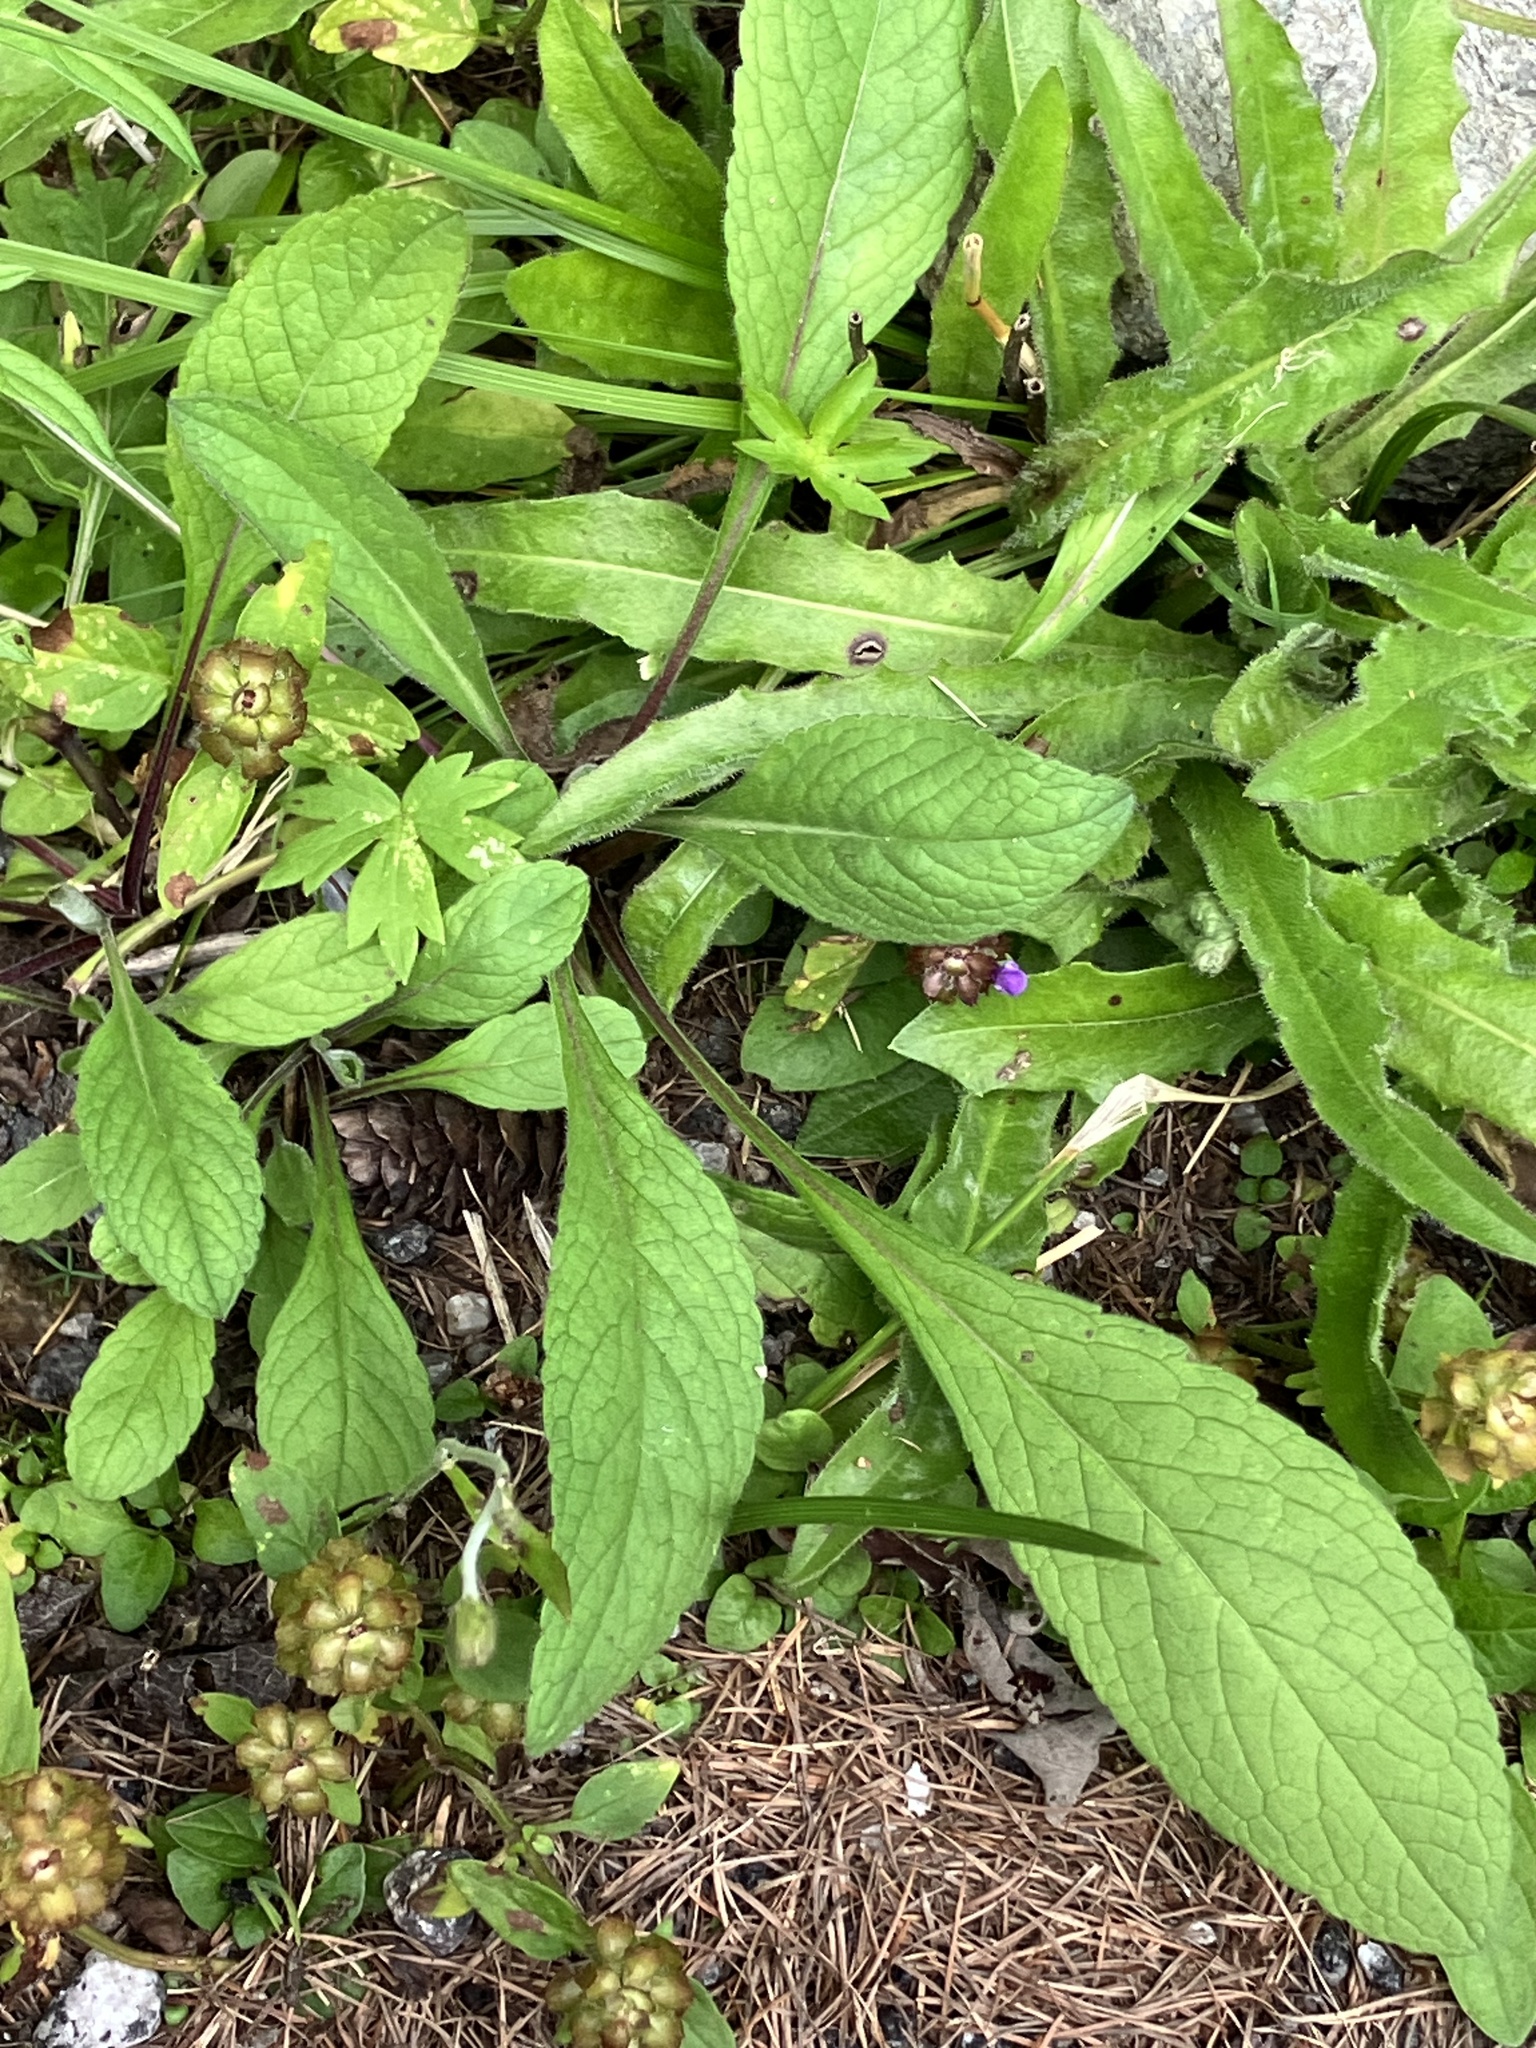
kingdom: Plantae
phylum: Tracheophyta
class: Magnoliopsida
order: Dipsacales
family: Caprifoliaceae
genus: Scabiosa
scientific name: Scabiosa lucida
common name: Shining scabious
